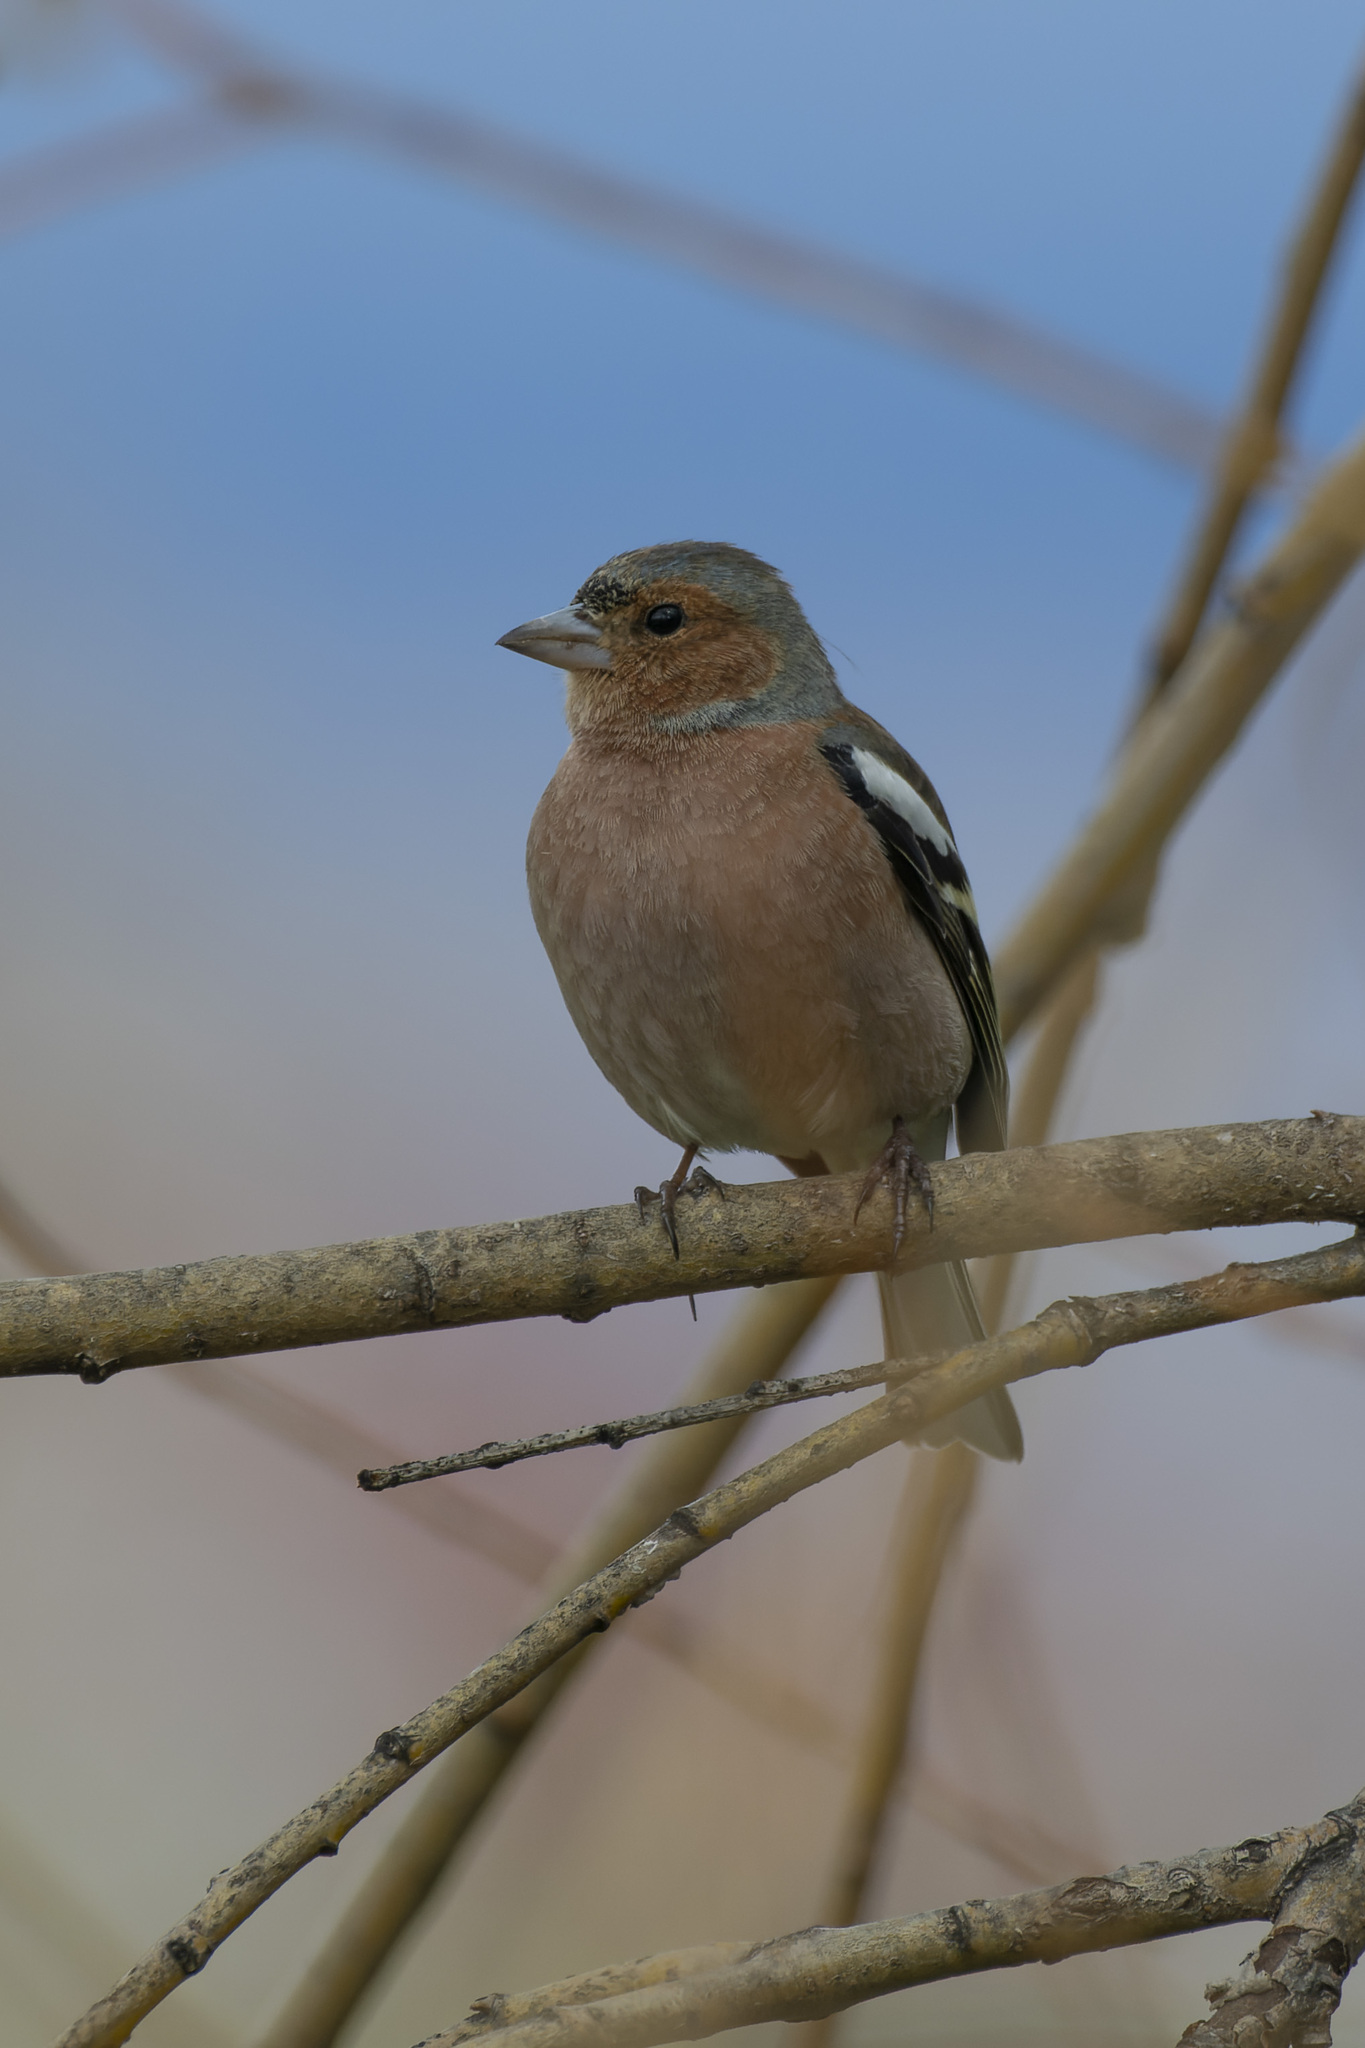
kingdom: Animalia
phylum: Chordata
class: Aves
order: Passeriformes
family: Fringillidae
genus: Fringilla
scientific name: Fringilla coelebs
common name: Common chaffinch
